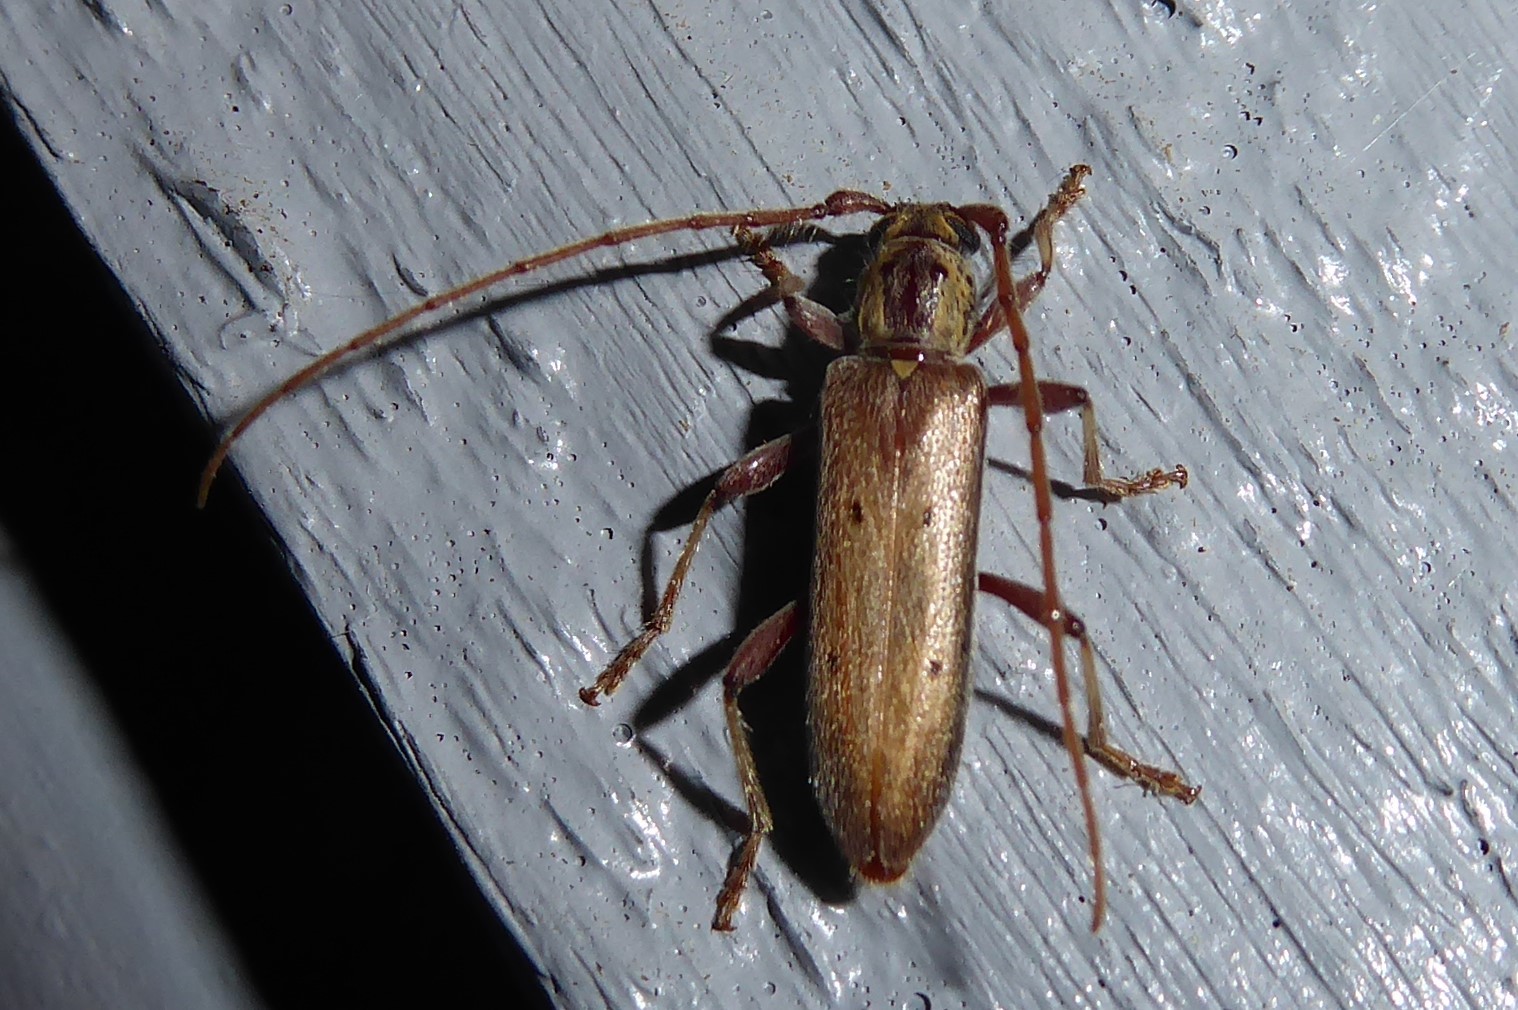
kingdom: Animalia
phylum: Arthropoda
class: Insecta
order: Coleoptera
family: Cerambycidae
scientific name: Cerambycidae
